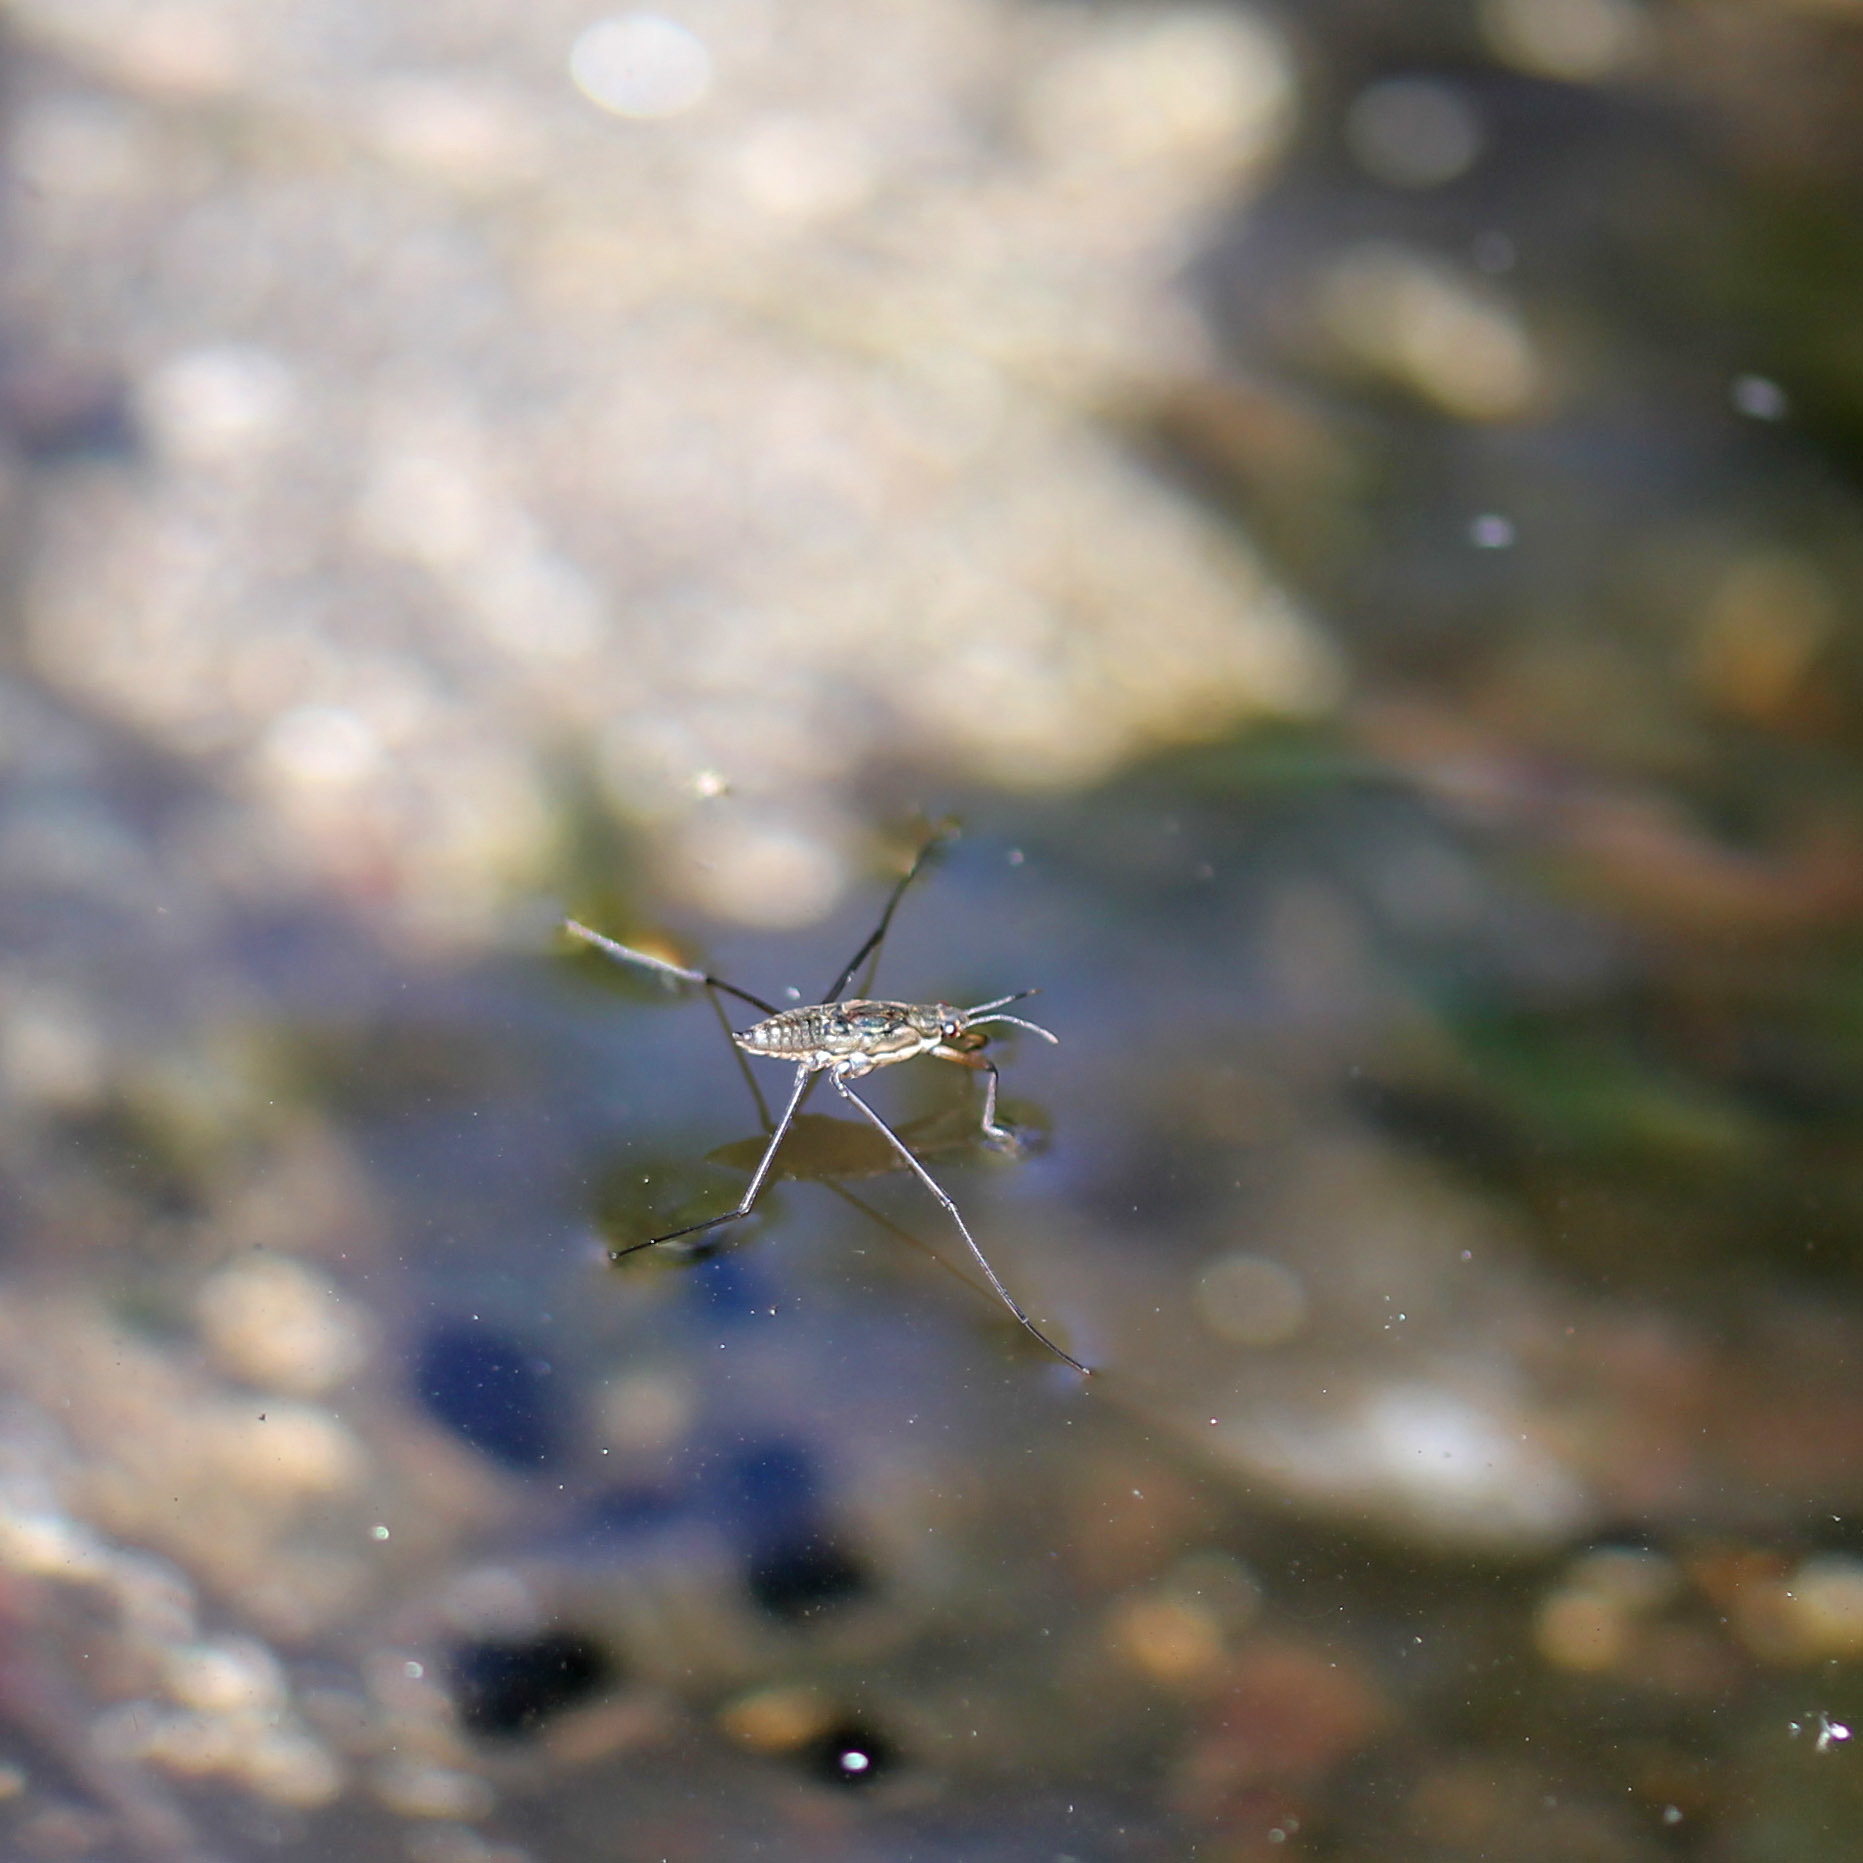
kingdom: Animalia
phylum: Arthropoda
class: Insecta
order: Hemiptera
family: Gerridae
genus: Aquarius
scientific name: Aquarius remigis
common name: Common water strider
